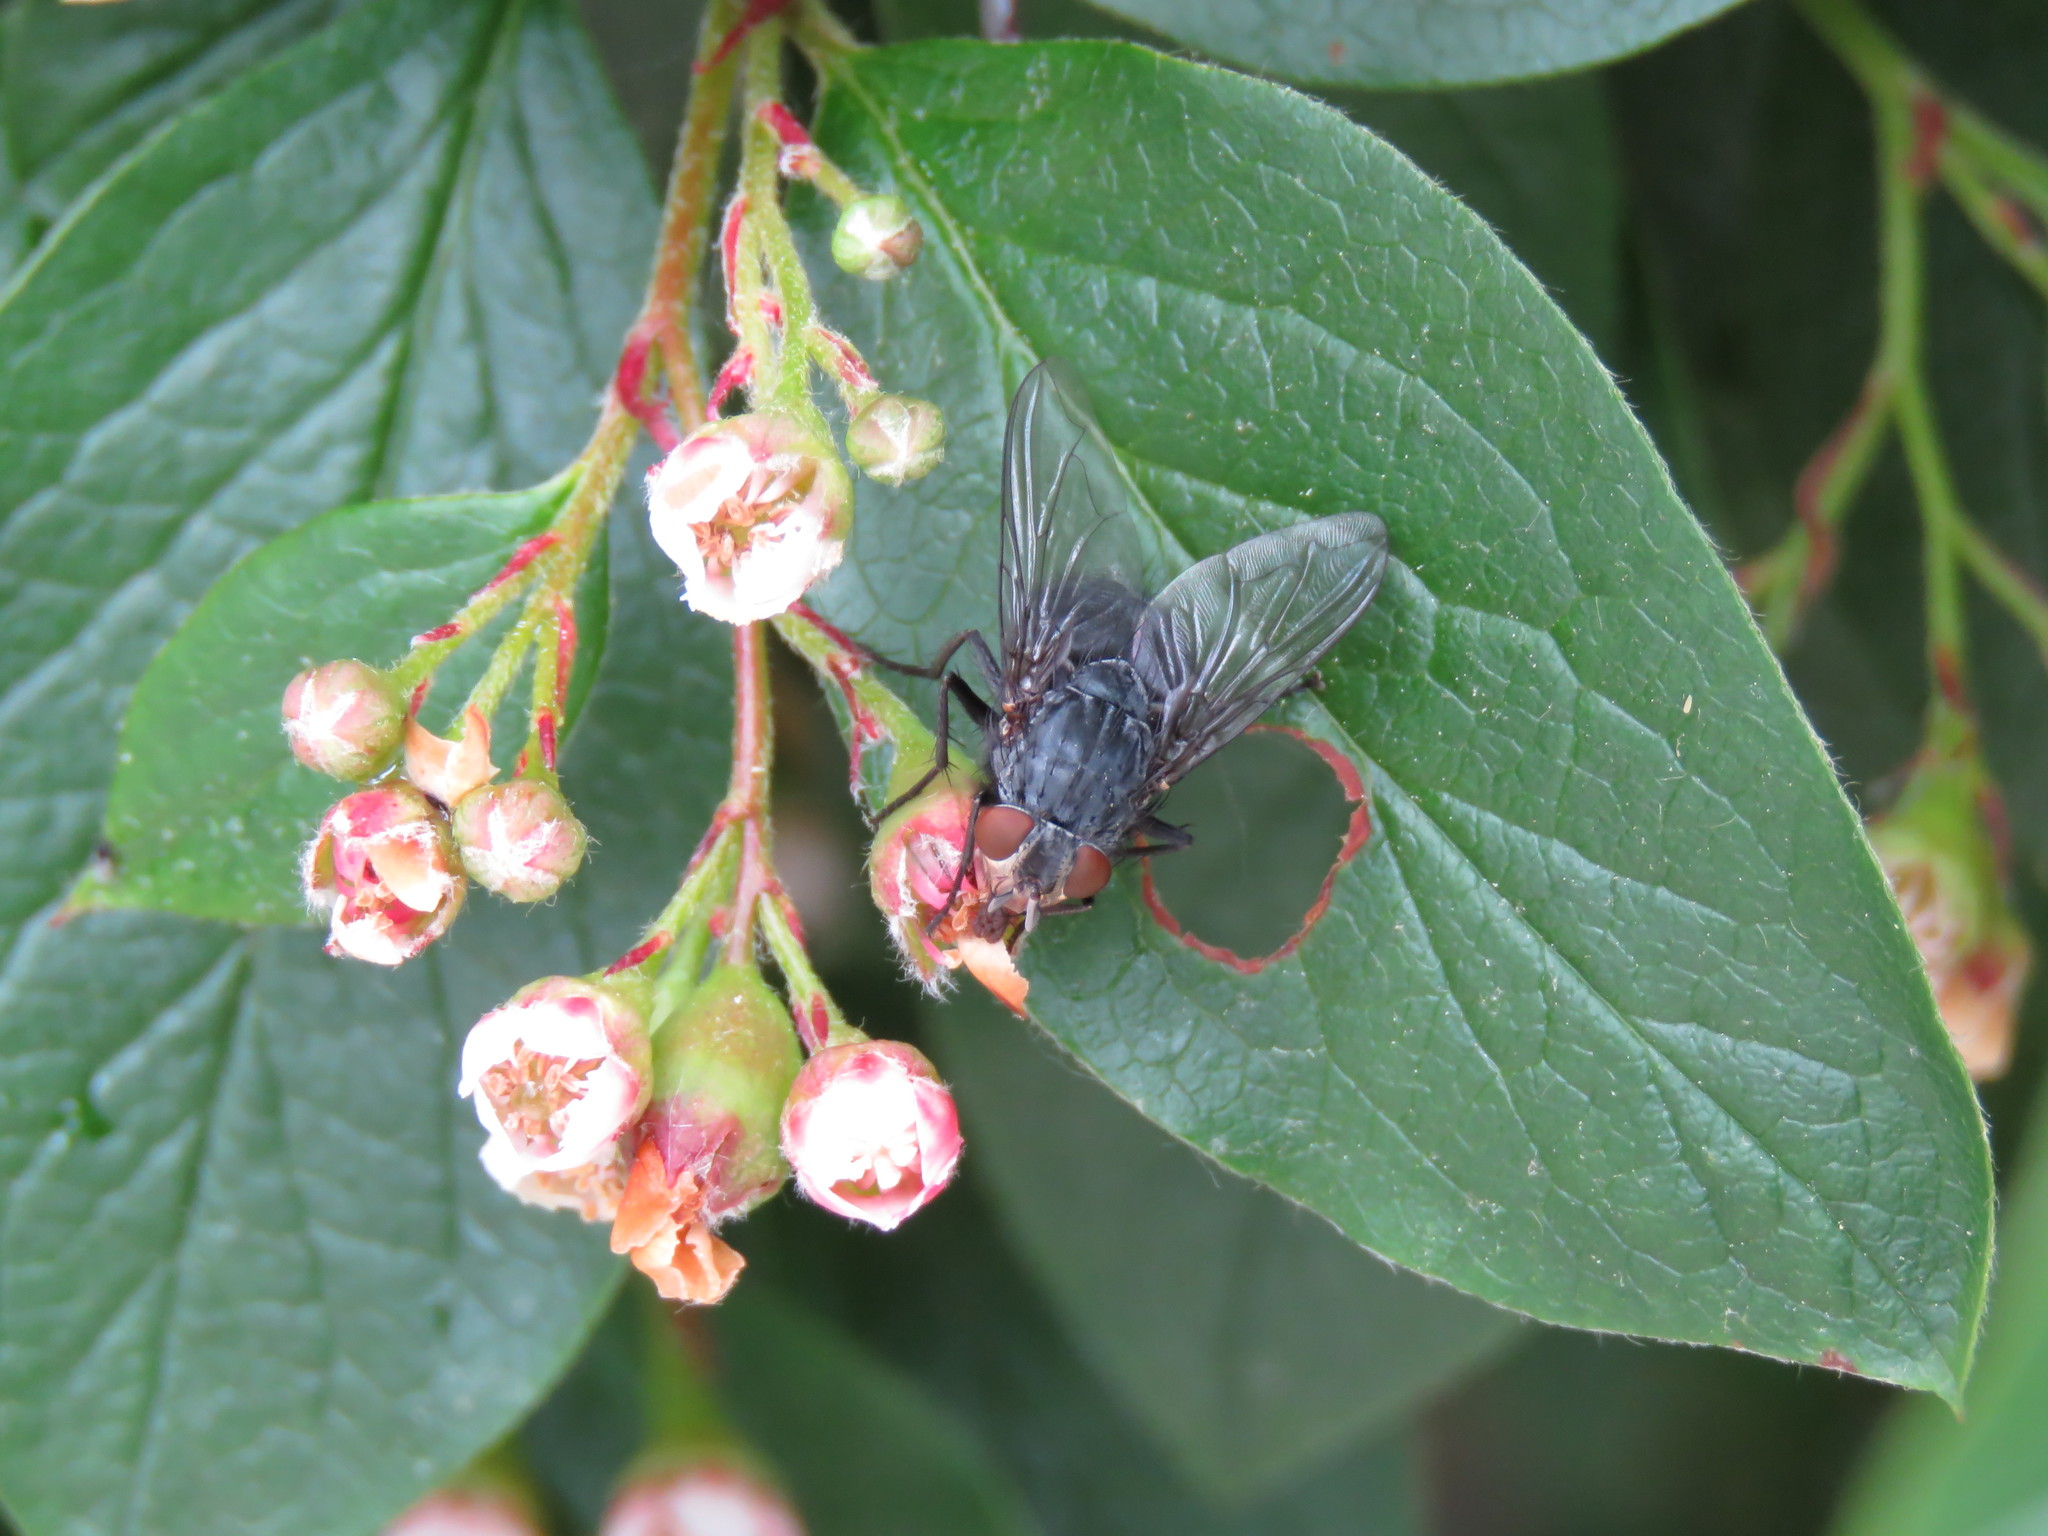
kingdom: Animalia
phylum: Arthropoda
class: Insecta
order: Diptera
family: Calliphoridae
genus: Calliphora
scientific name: Calliphora vicina
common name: Common blow flie
